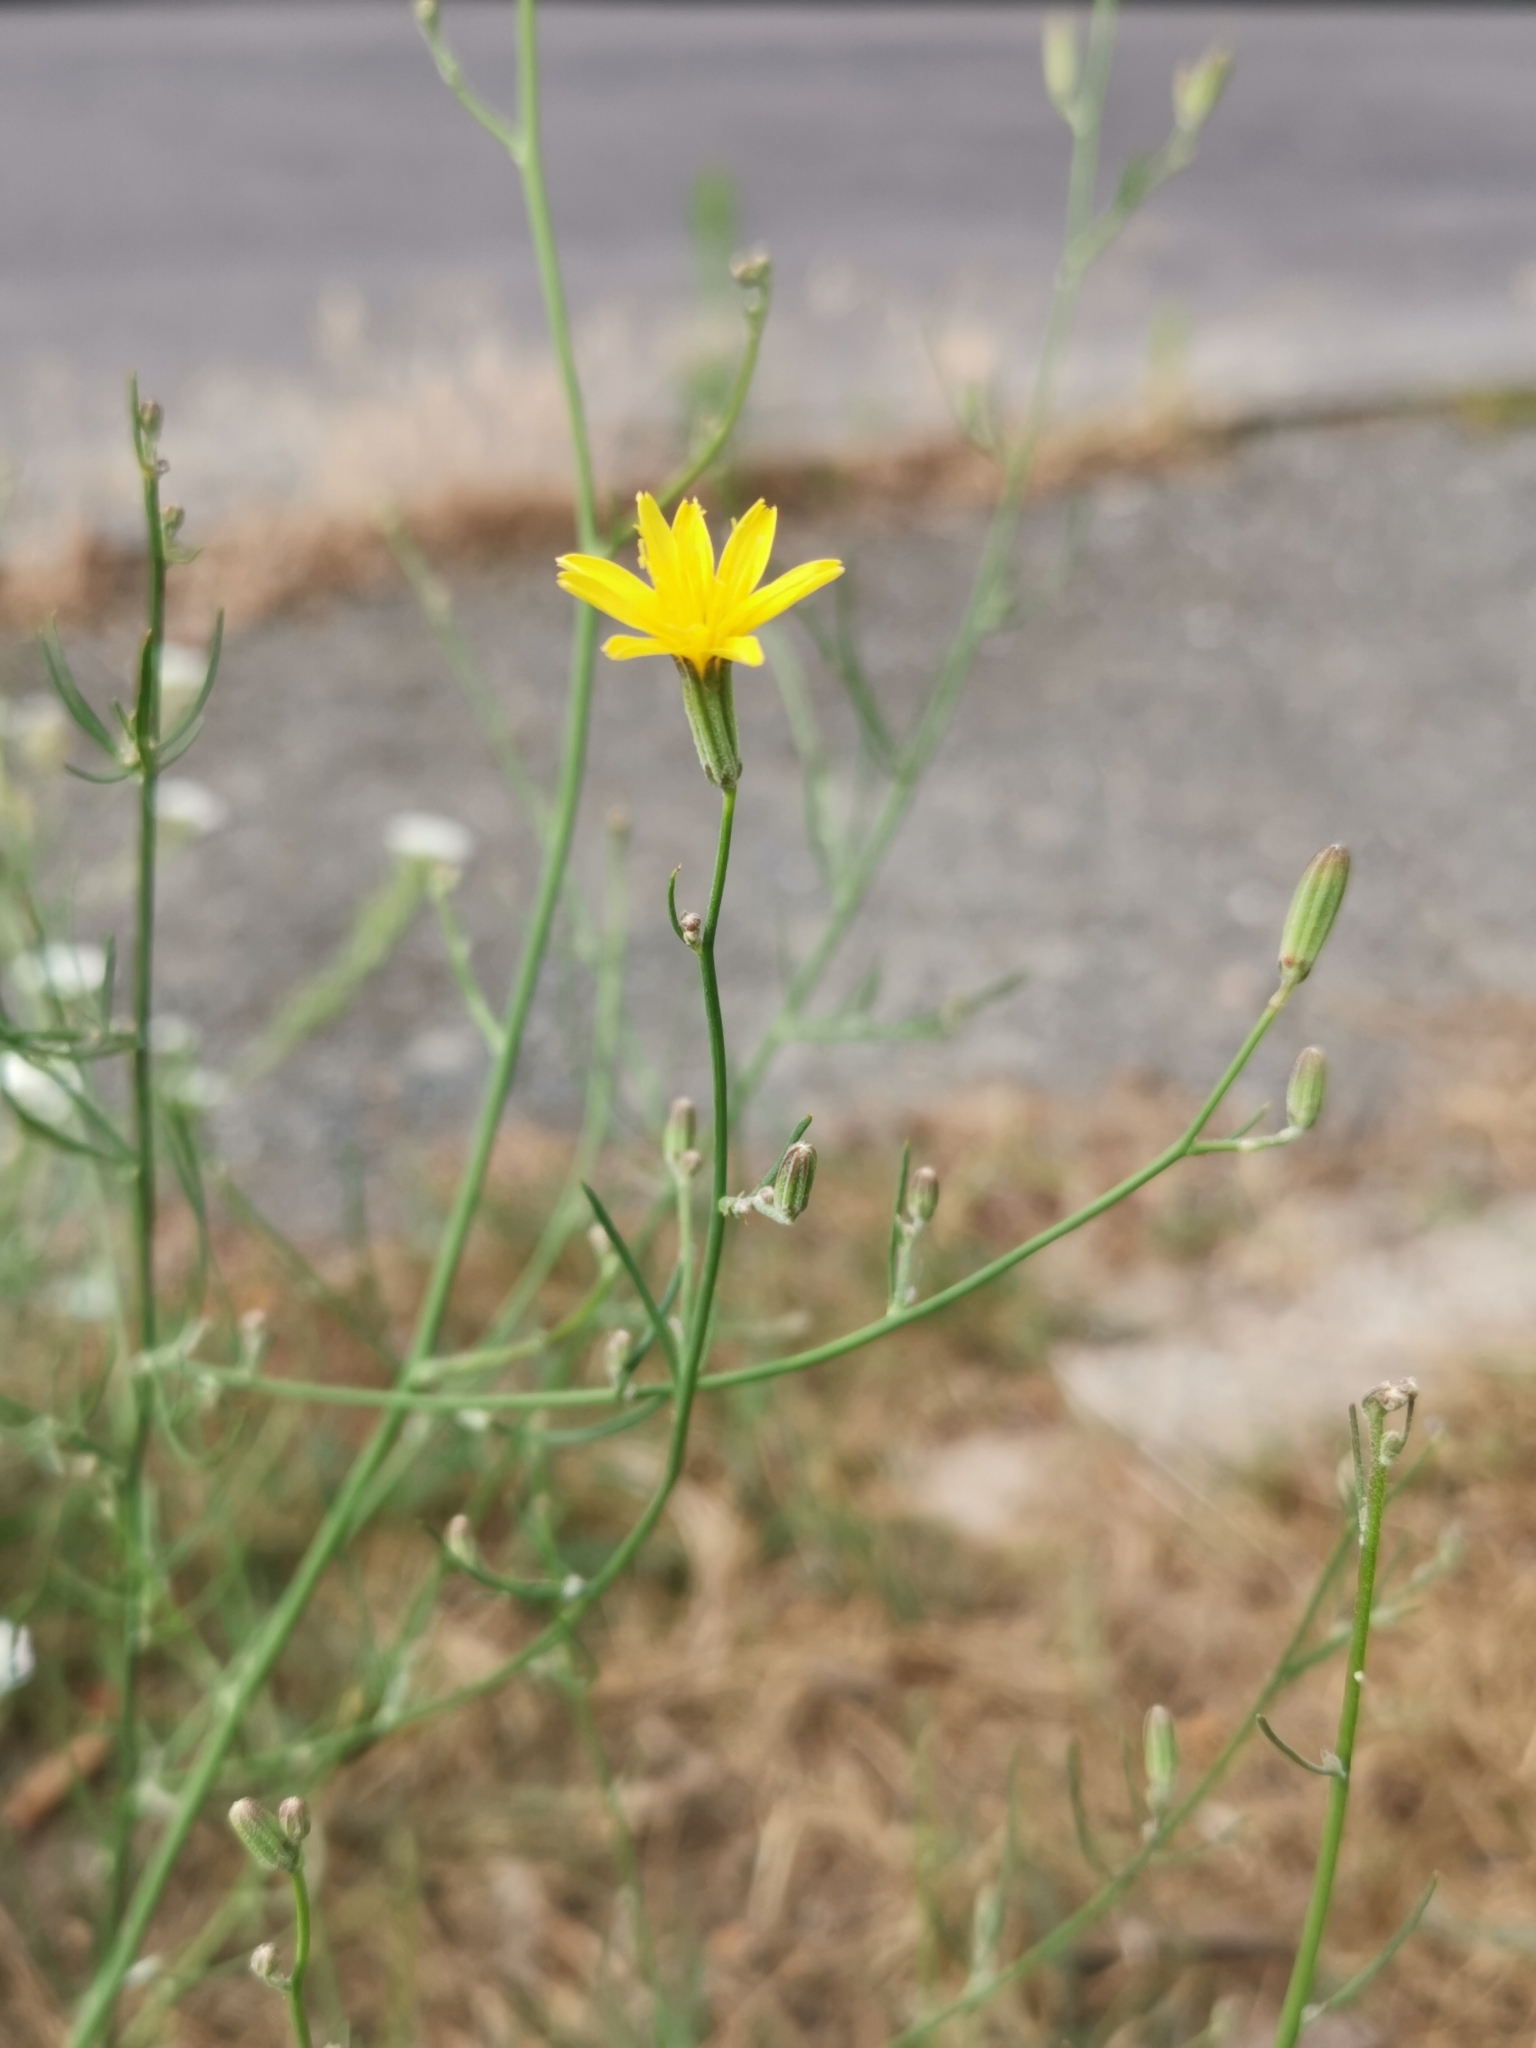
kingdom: Plantae
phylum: Tracheophyta
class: Magnoliopsida
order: Asterales
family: Asteraceae
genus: Chondrilla
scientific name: Chondrilla juncea
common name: Skeleton weed
